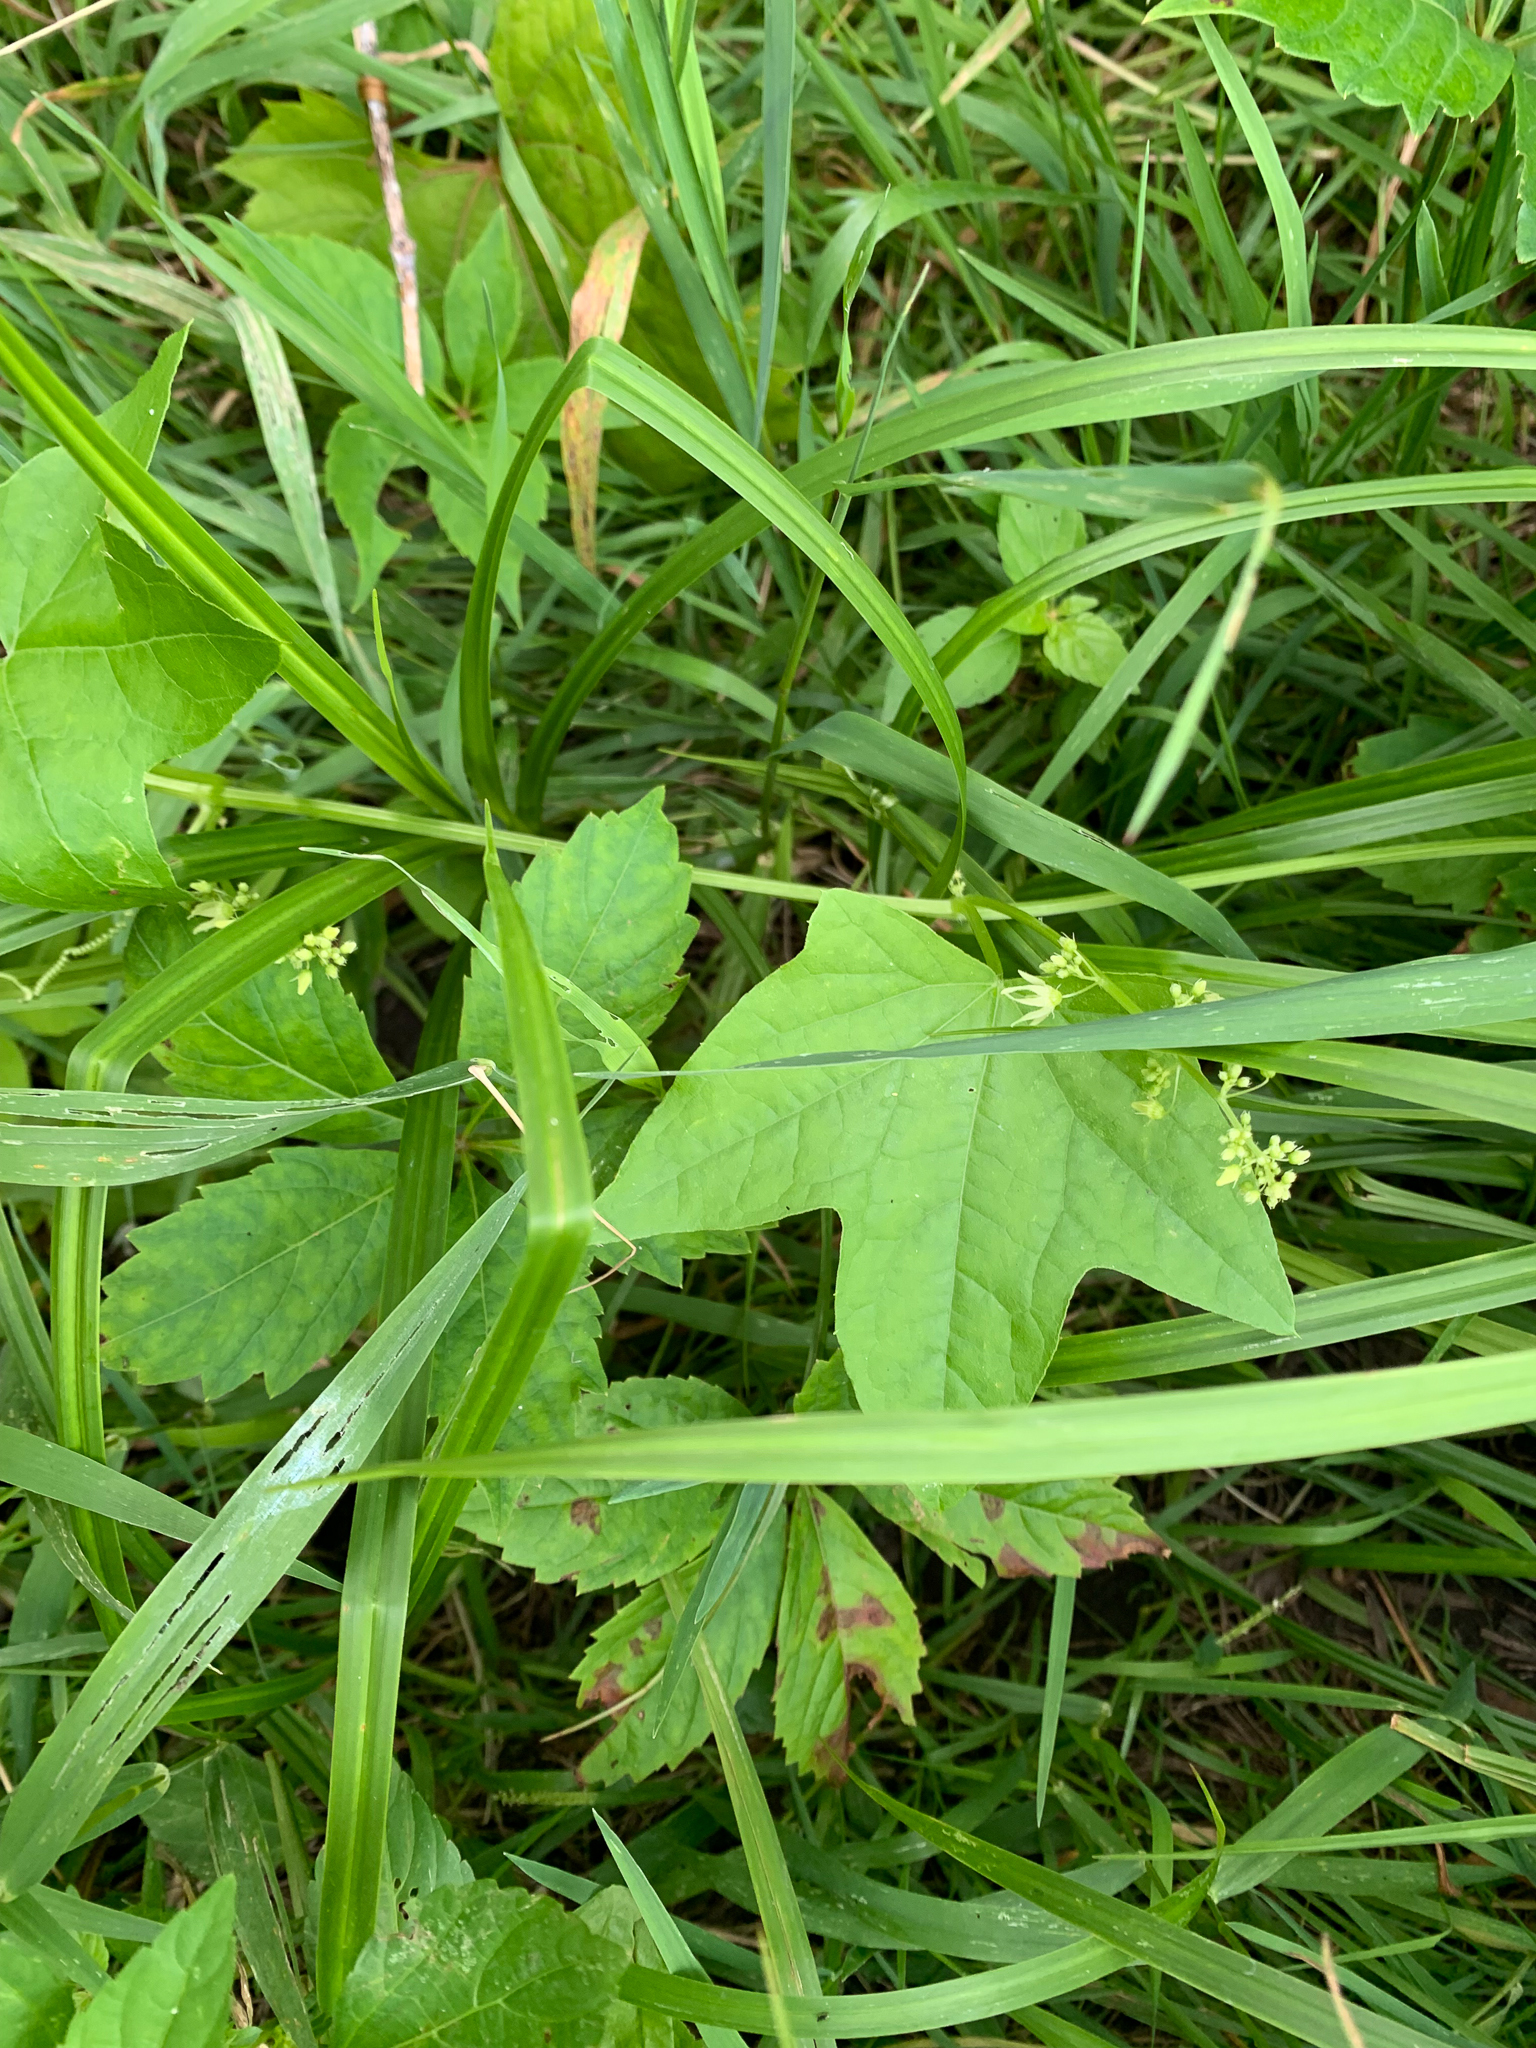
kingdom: Plantae
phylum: Tracheophyta
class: Magnoliopsida
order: Cucurbitales
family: Cucurbitaceae
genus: Echinocystis
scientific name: Echinocystis lobata
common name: Wild cucumber
